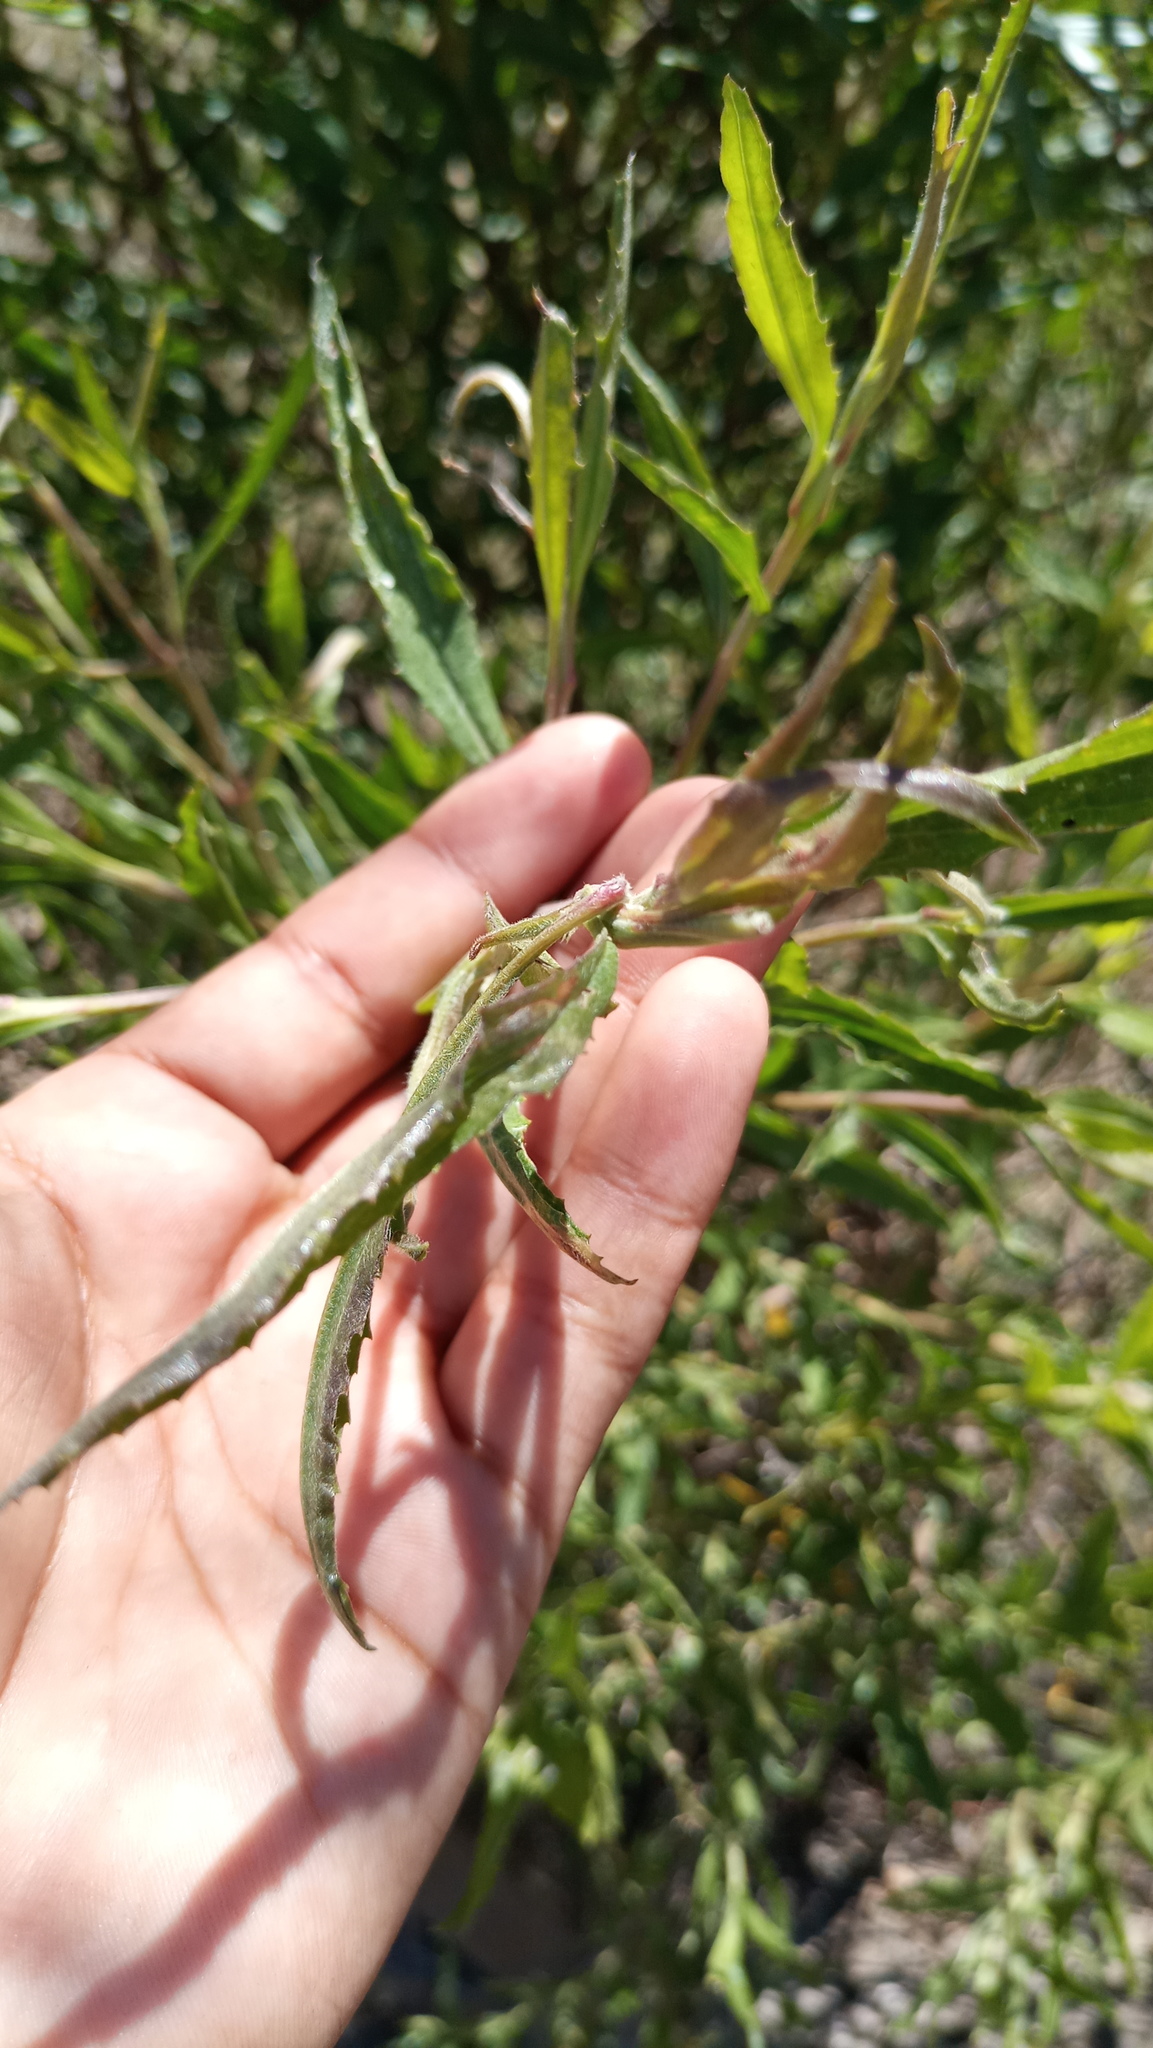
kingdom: Plantae
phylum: Tracheophyta
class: Magnoliopsida
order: Asterales
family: Asteraceae
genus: Baccharis
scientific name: Baccharis salicifolia
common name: Sticky baccharis
